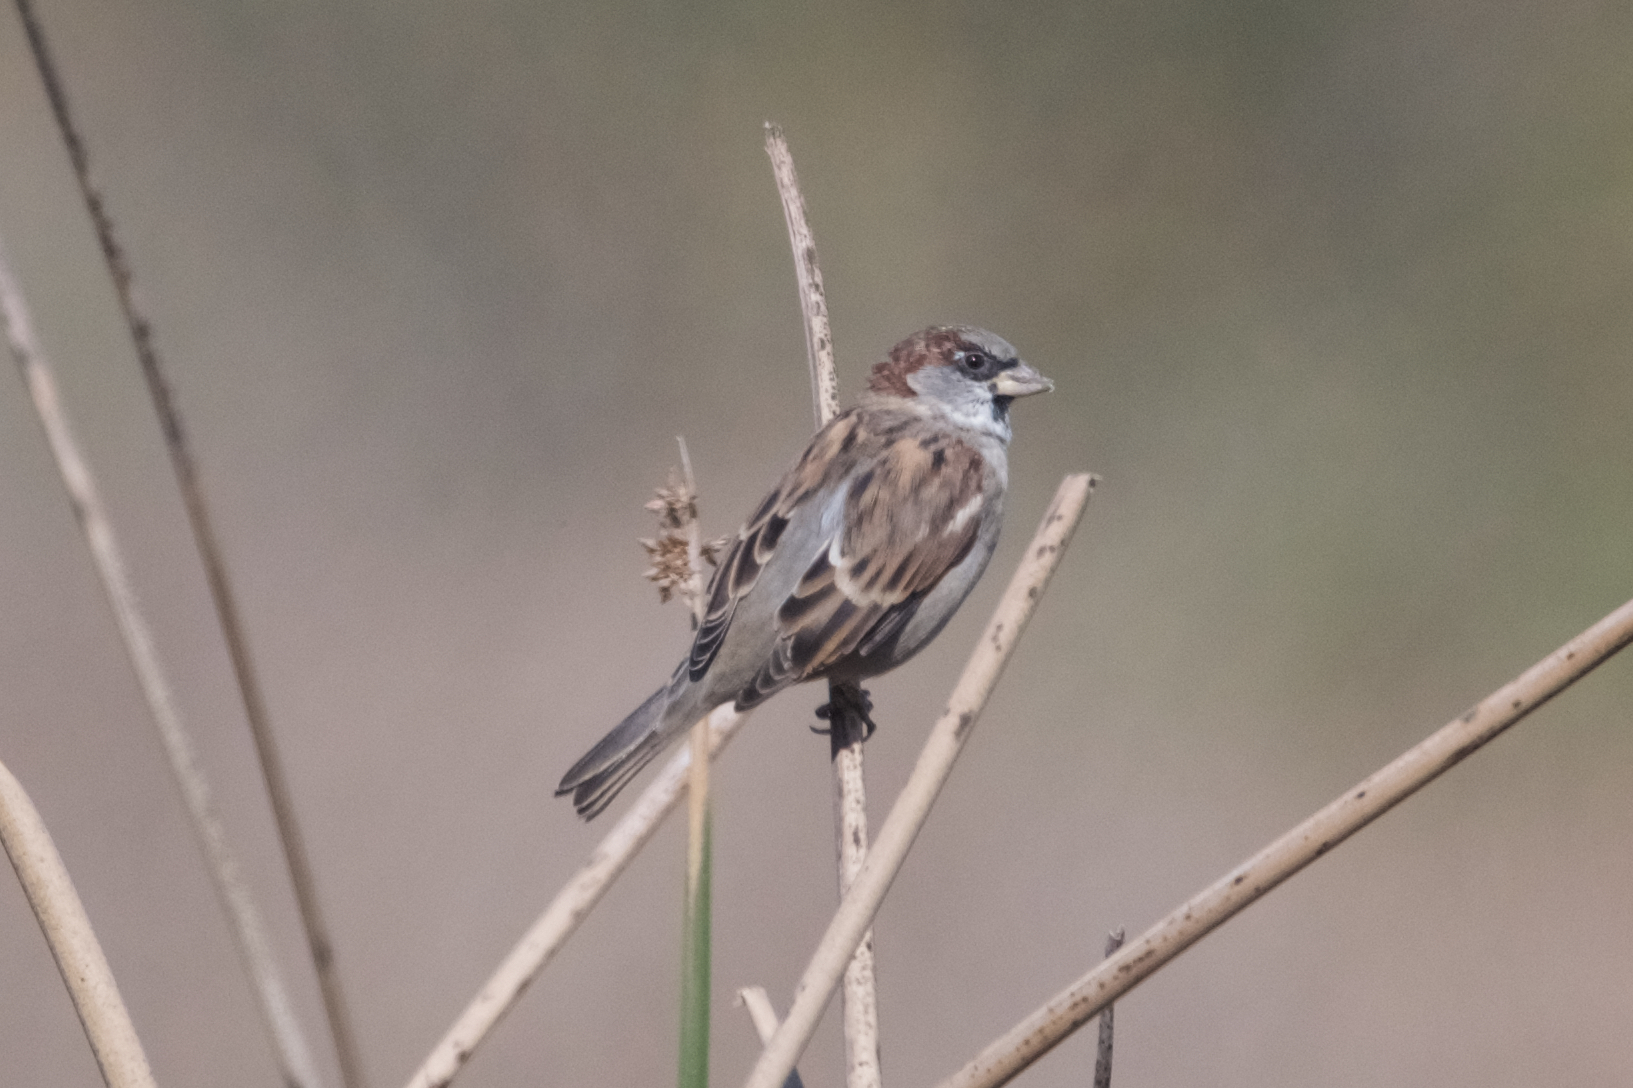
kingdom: Animalia
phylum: Chordata
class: Aves
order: Passeriformes
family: Passeridae
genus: Passer
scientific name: Passer domesticus
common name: House sparrow
